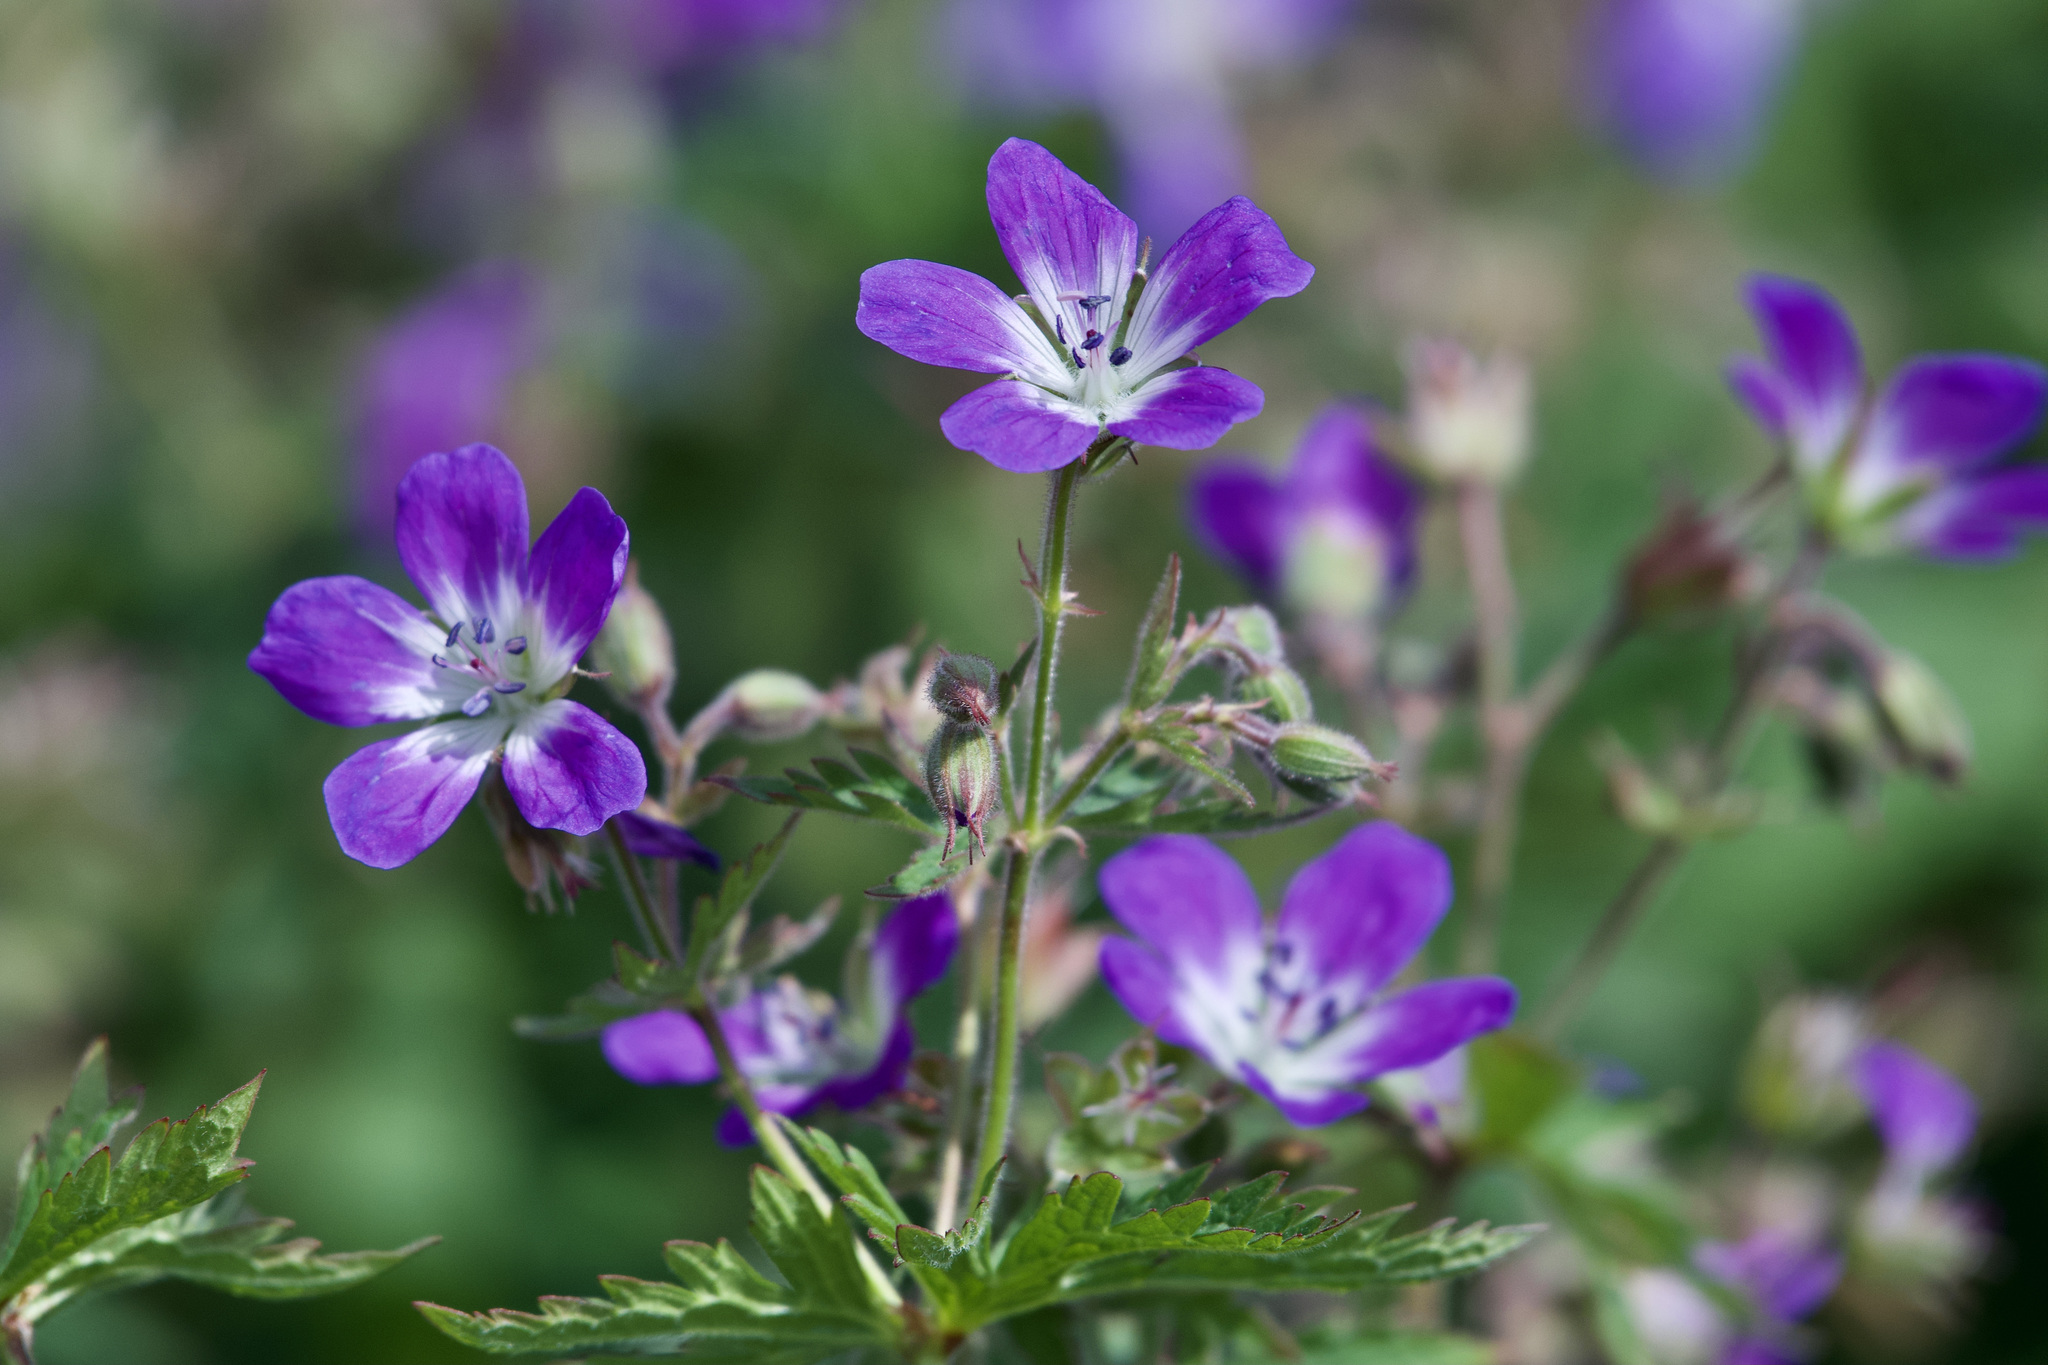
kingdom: Plantae
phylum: Tracheophyta
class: Magnoliopsida
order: Geraniales
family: Geraniaceae
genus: Geranium
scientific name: Geranium sylvaticum
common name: Wood crane's-bill
